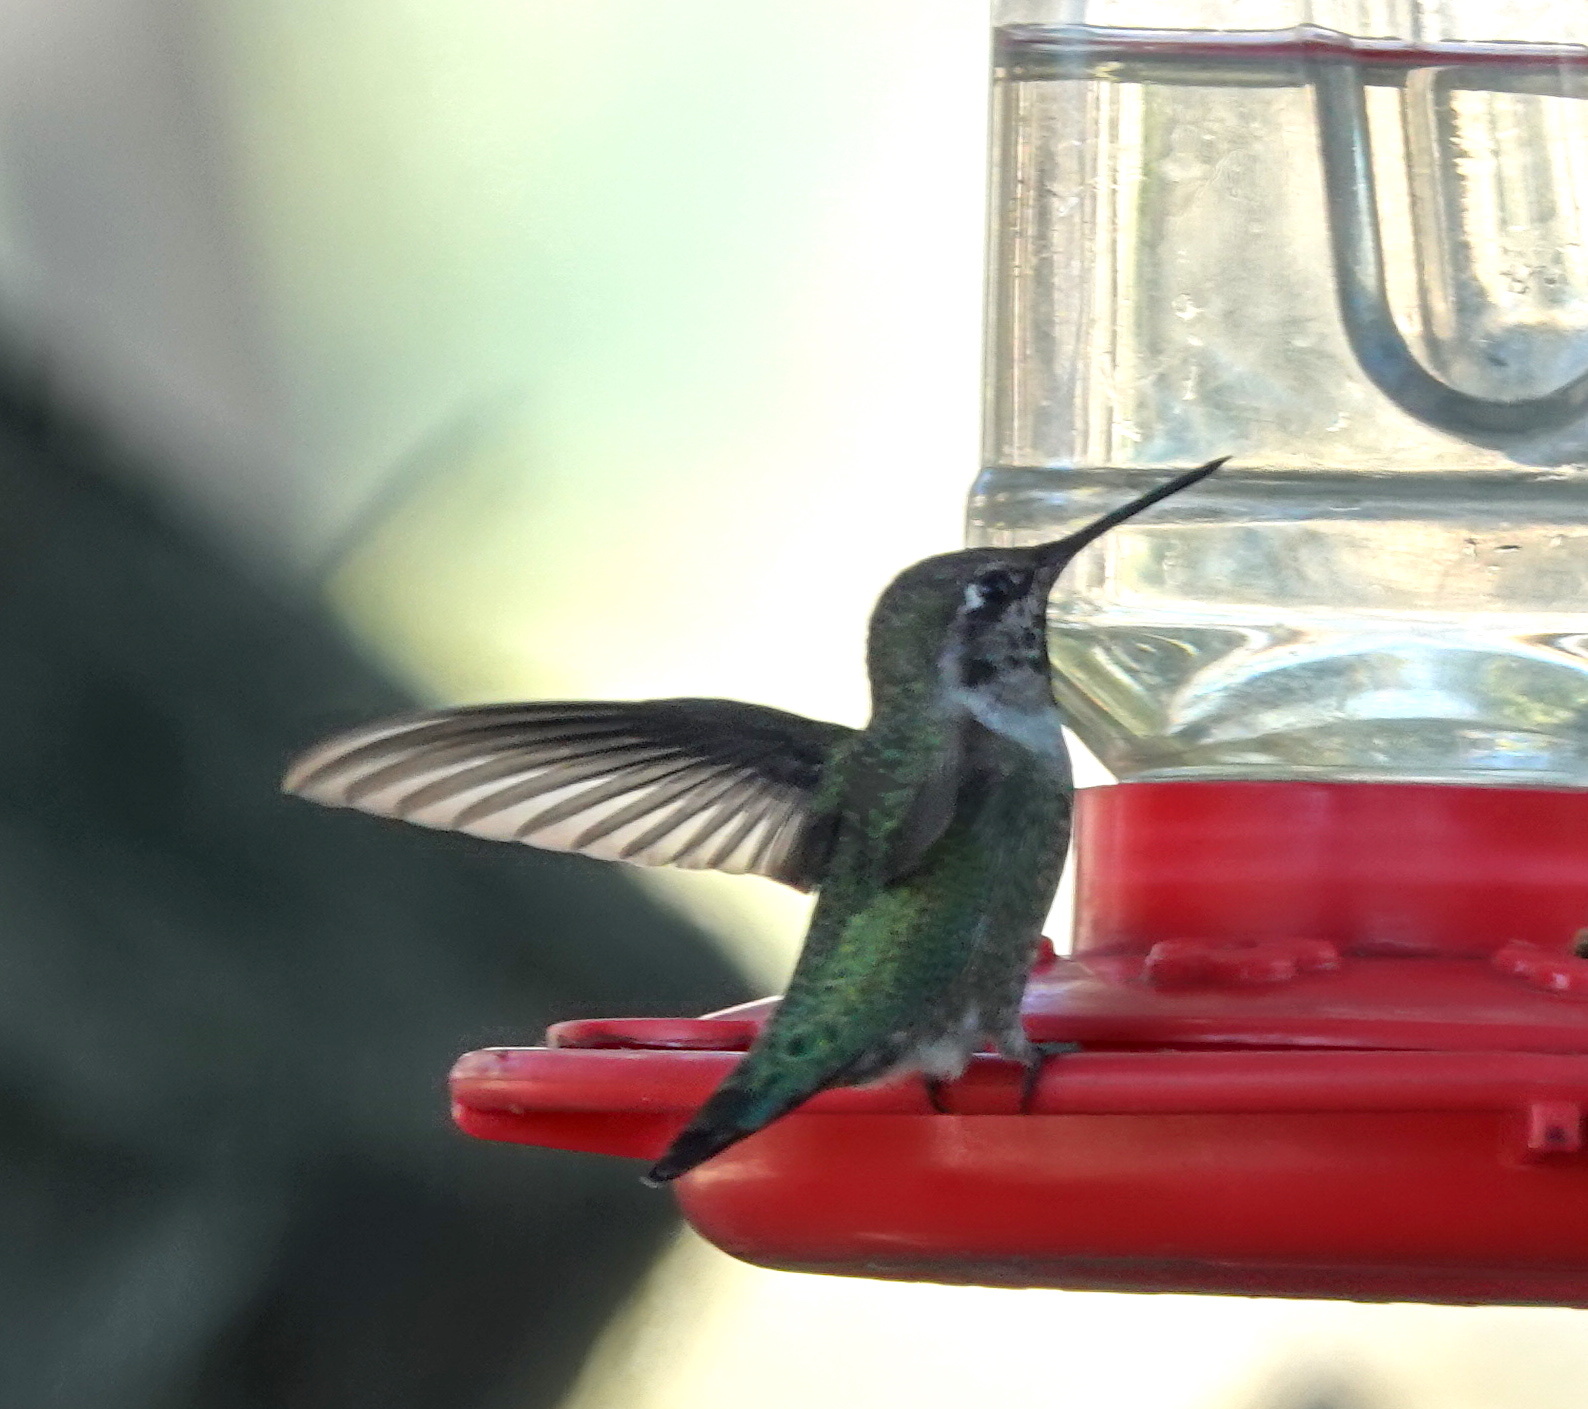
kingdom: Animalia
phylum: Chordata
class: Aves
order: Apodiformes
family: Trochilidae
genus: Calypte
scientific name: Calypte anna
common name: Anna's hummingbird
